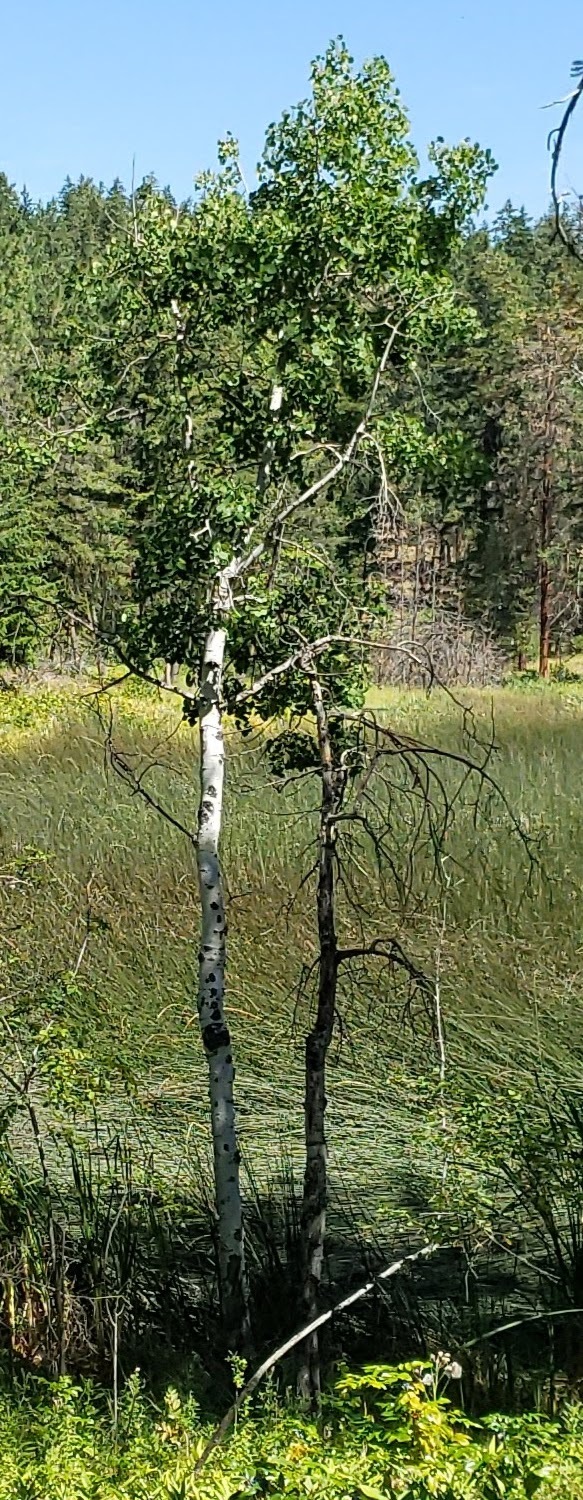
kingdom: Plantae
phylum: Tracheophyta
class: Magnoliopsida
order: Malpighiales
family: Salicaceae
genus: Populus
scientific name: Populus tremuloides
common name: Quaking aspen
